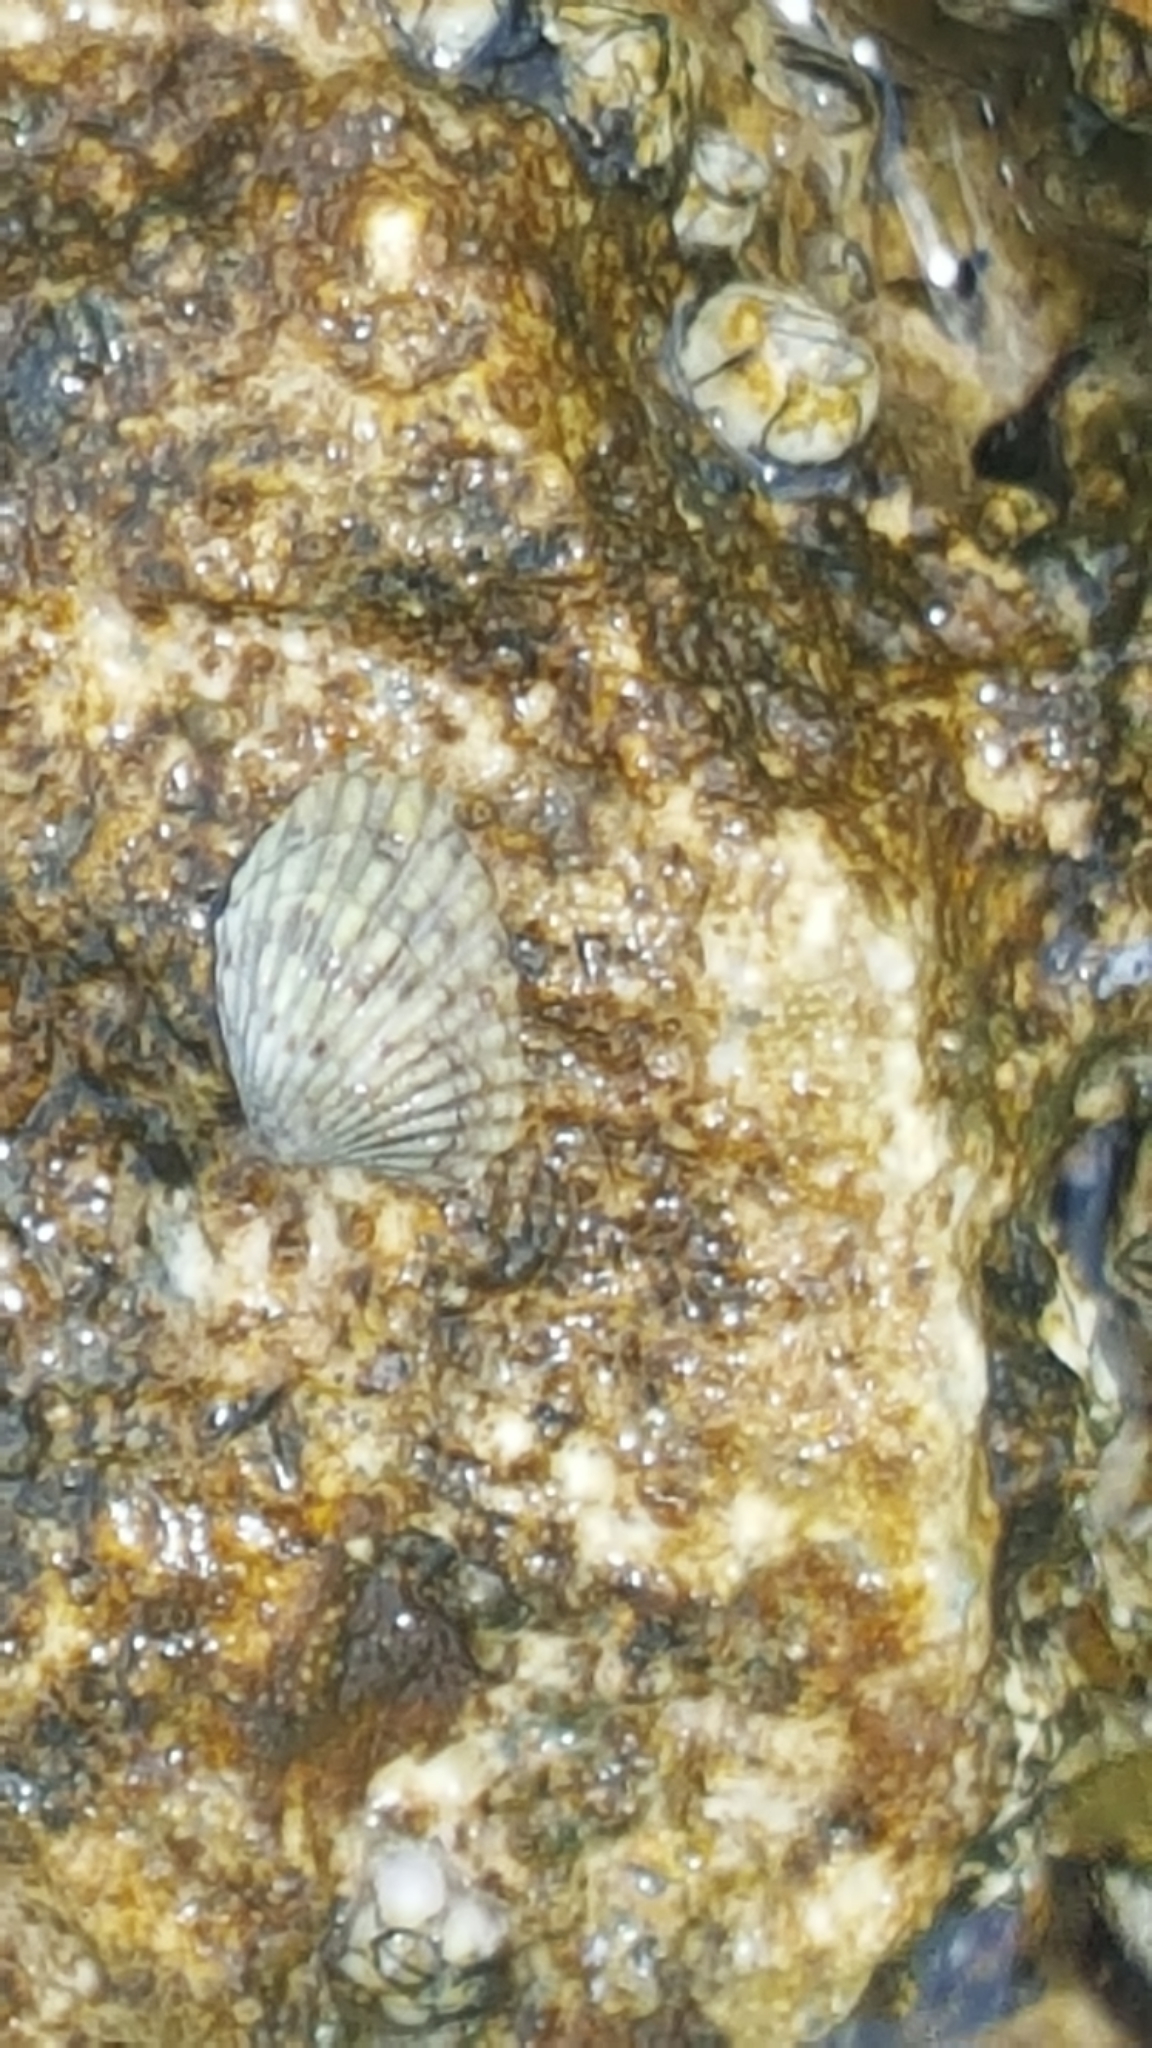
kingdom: Animalia
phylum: Mollusca
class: Bivalvia
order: Carditida
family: Carditidae
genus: Cardites
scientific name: Cardites floridanus
